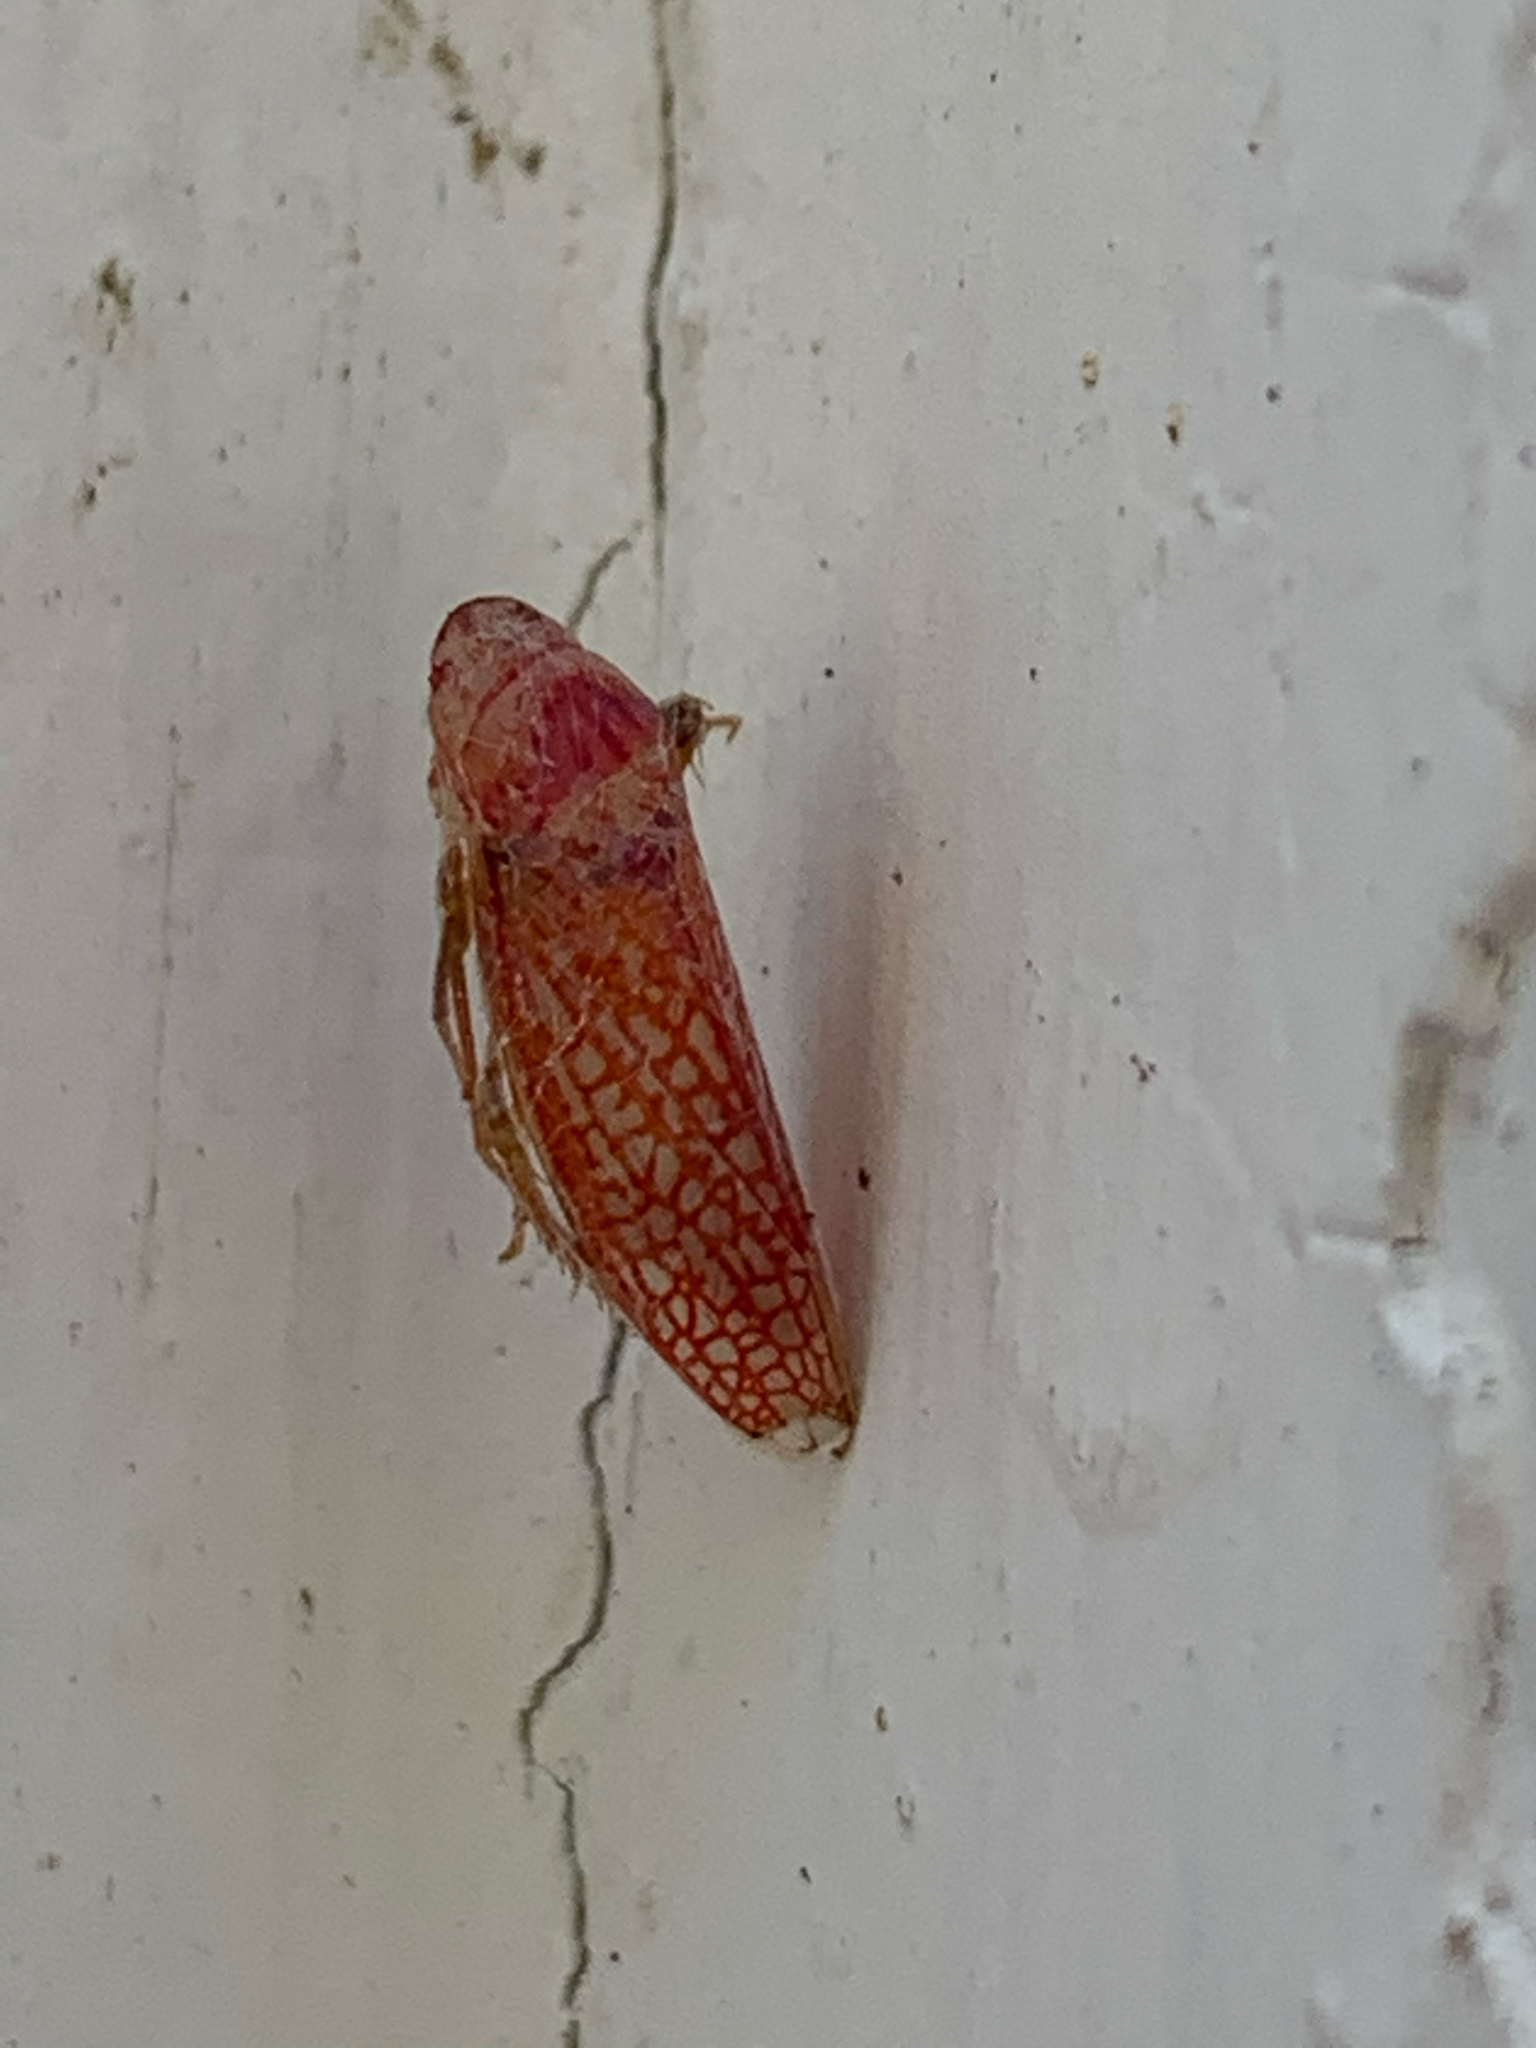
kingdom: Animalia
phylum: Arthropoda
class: Insecta
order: Hemiptera
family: Cicadellidae
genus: Gyponana
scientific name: Gyponana gladia
